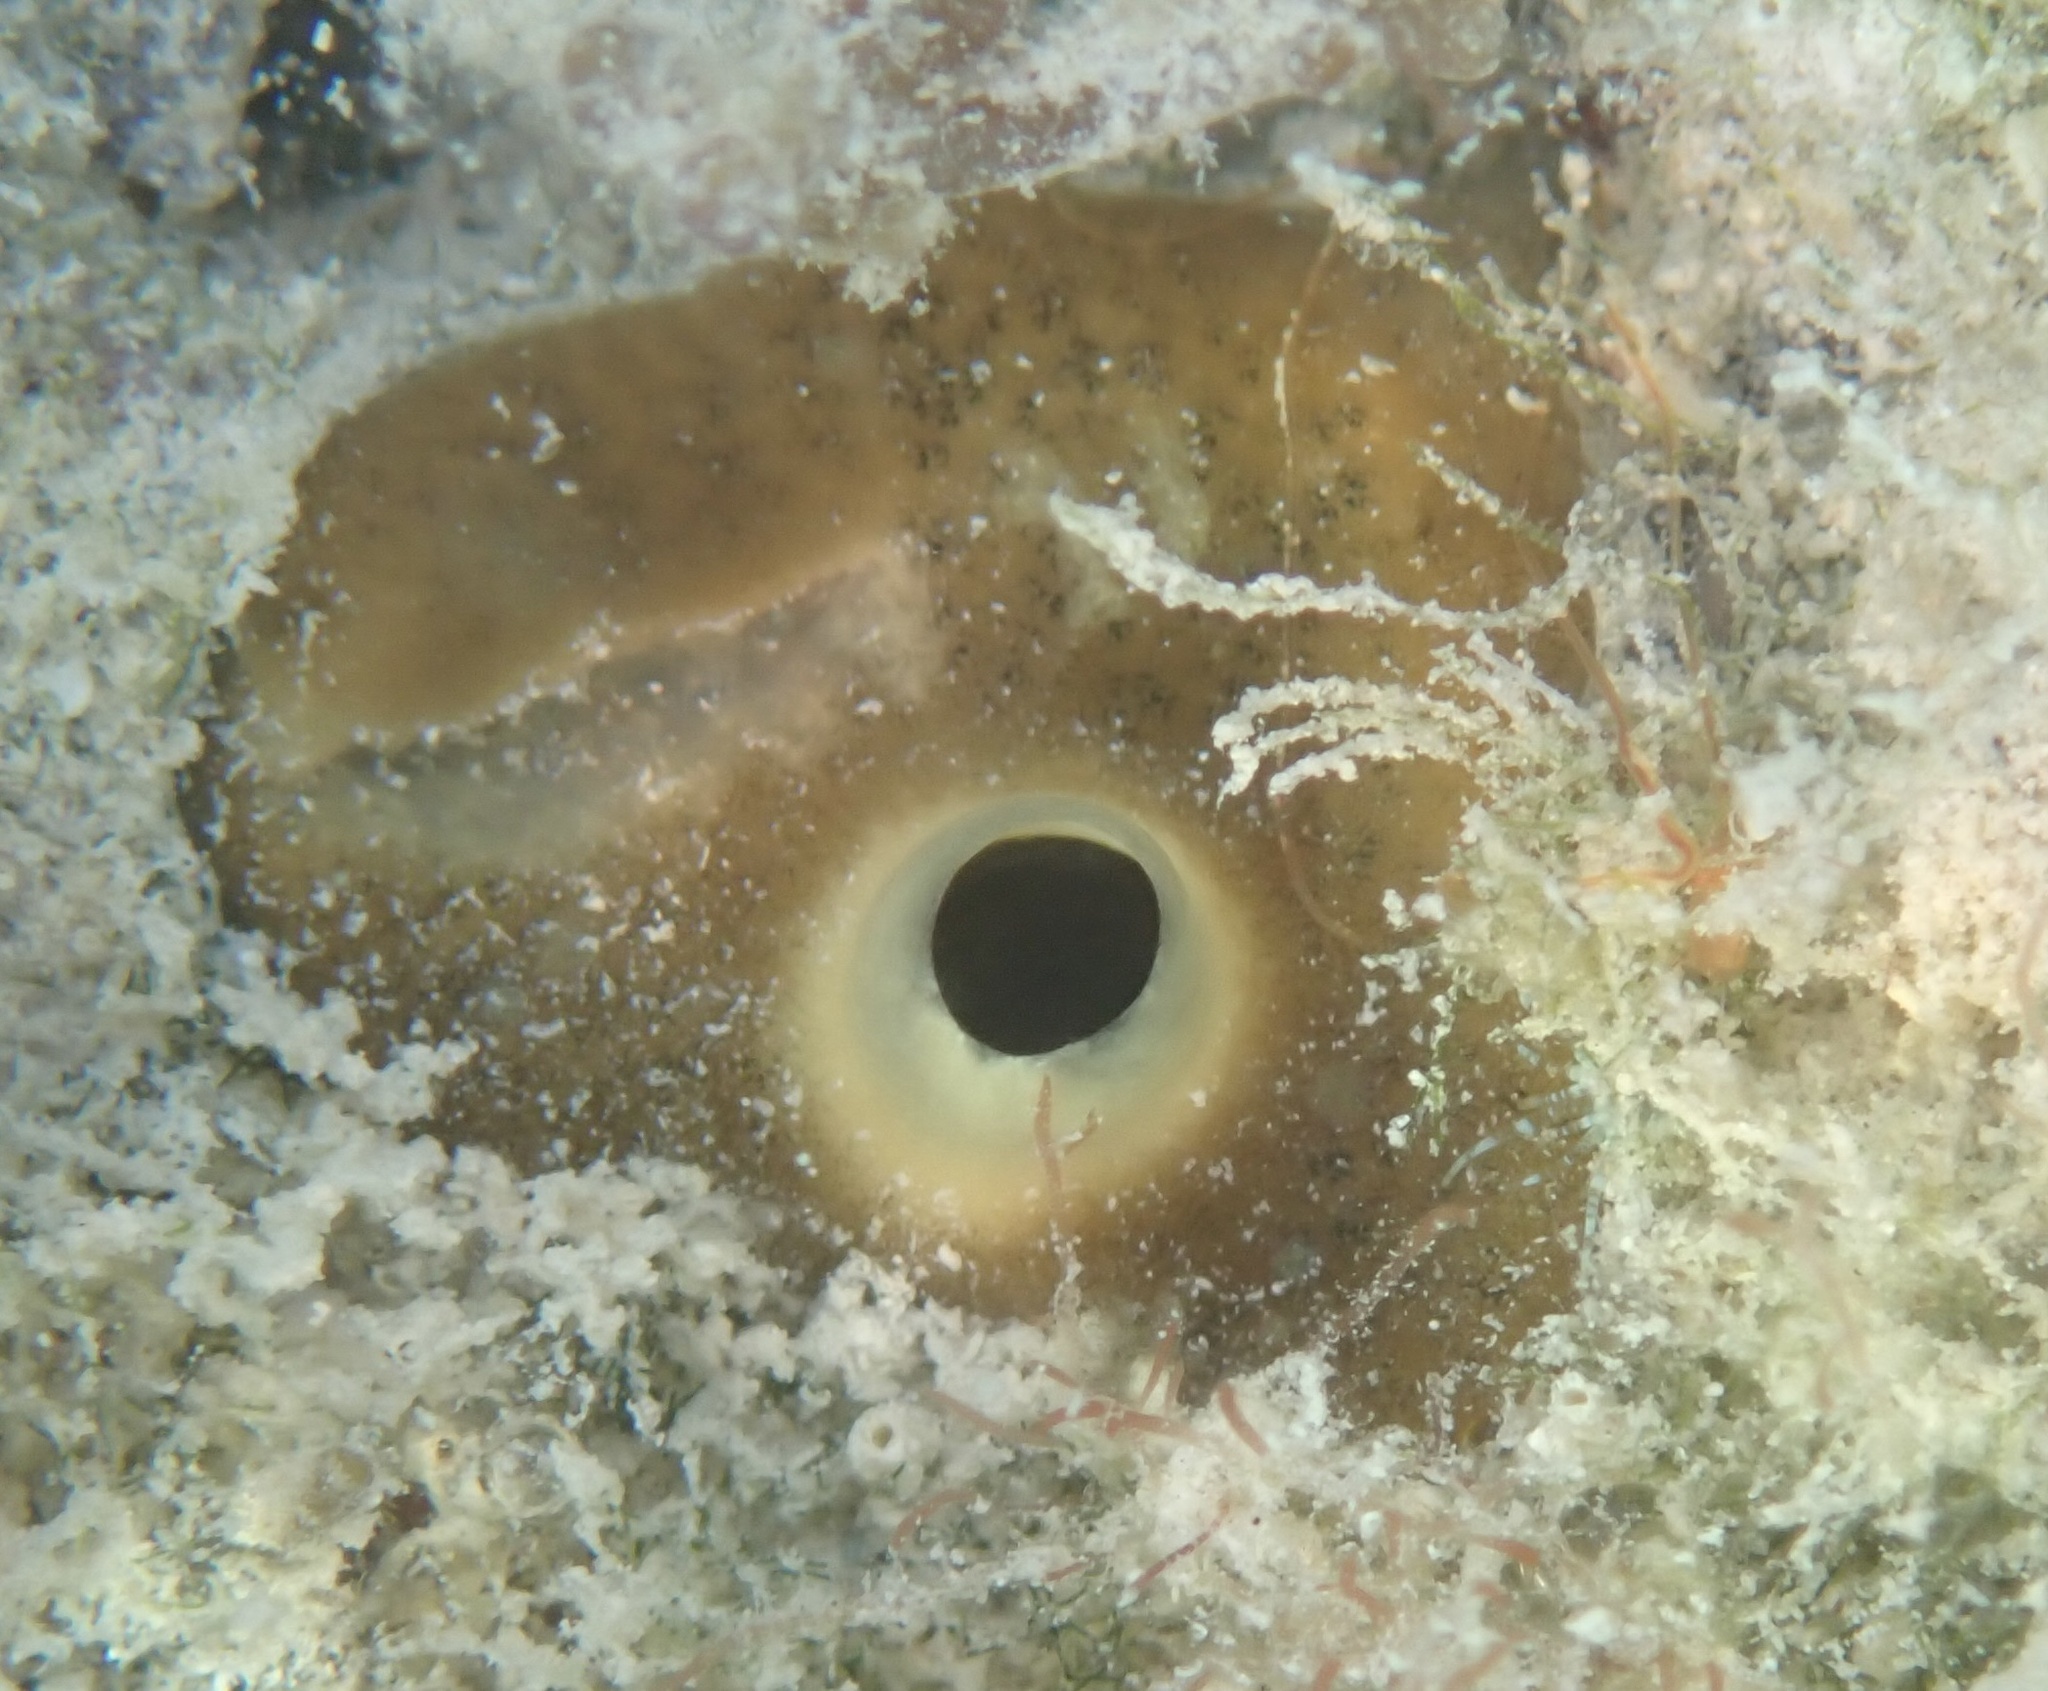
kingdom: Animalia
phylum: Porifera
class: Demospongiae
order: Clionaida
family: Clionaidae
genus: Cliona
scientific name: Cliona varians
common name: Brown variable sponge
